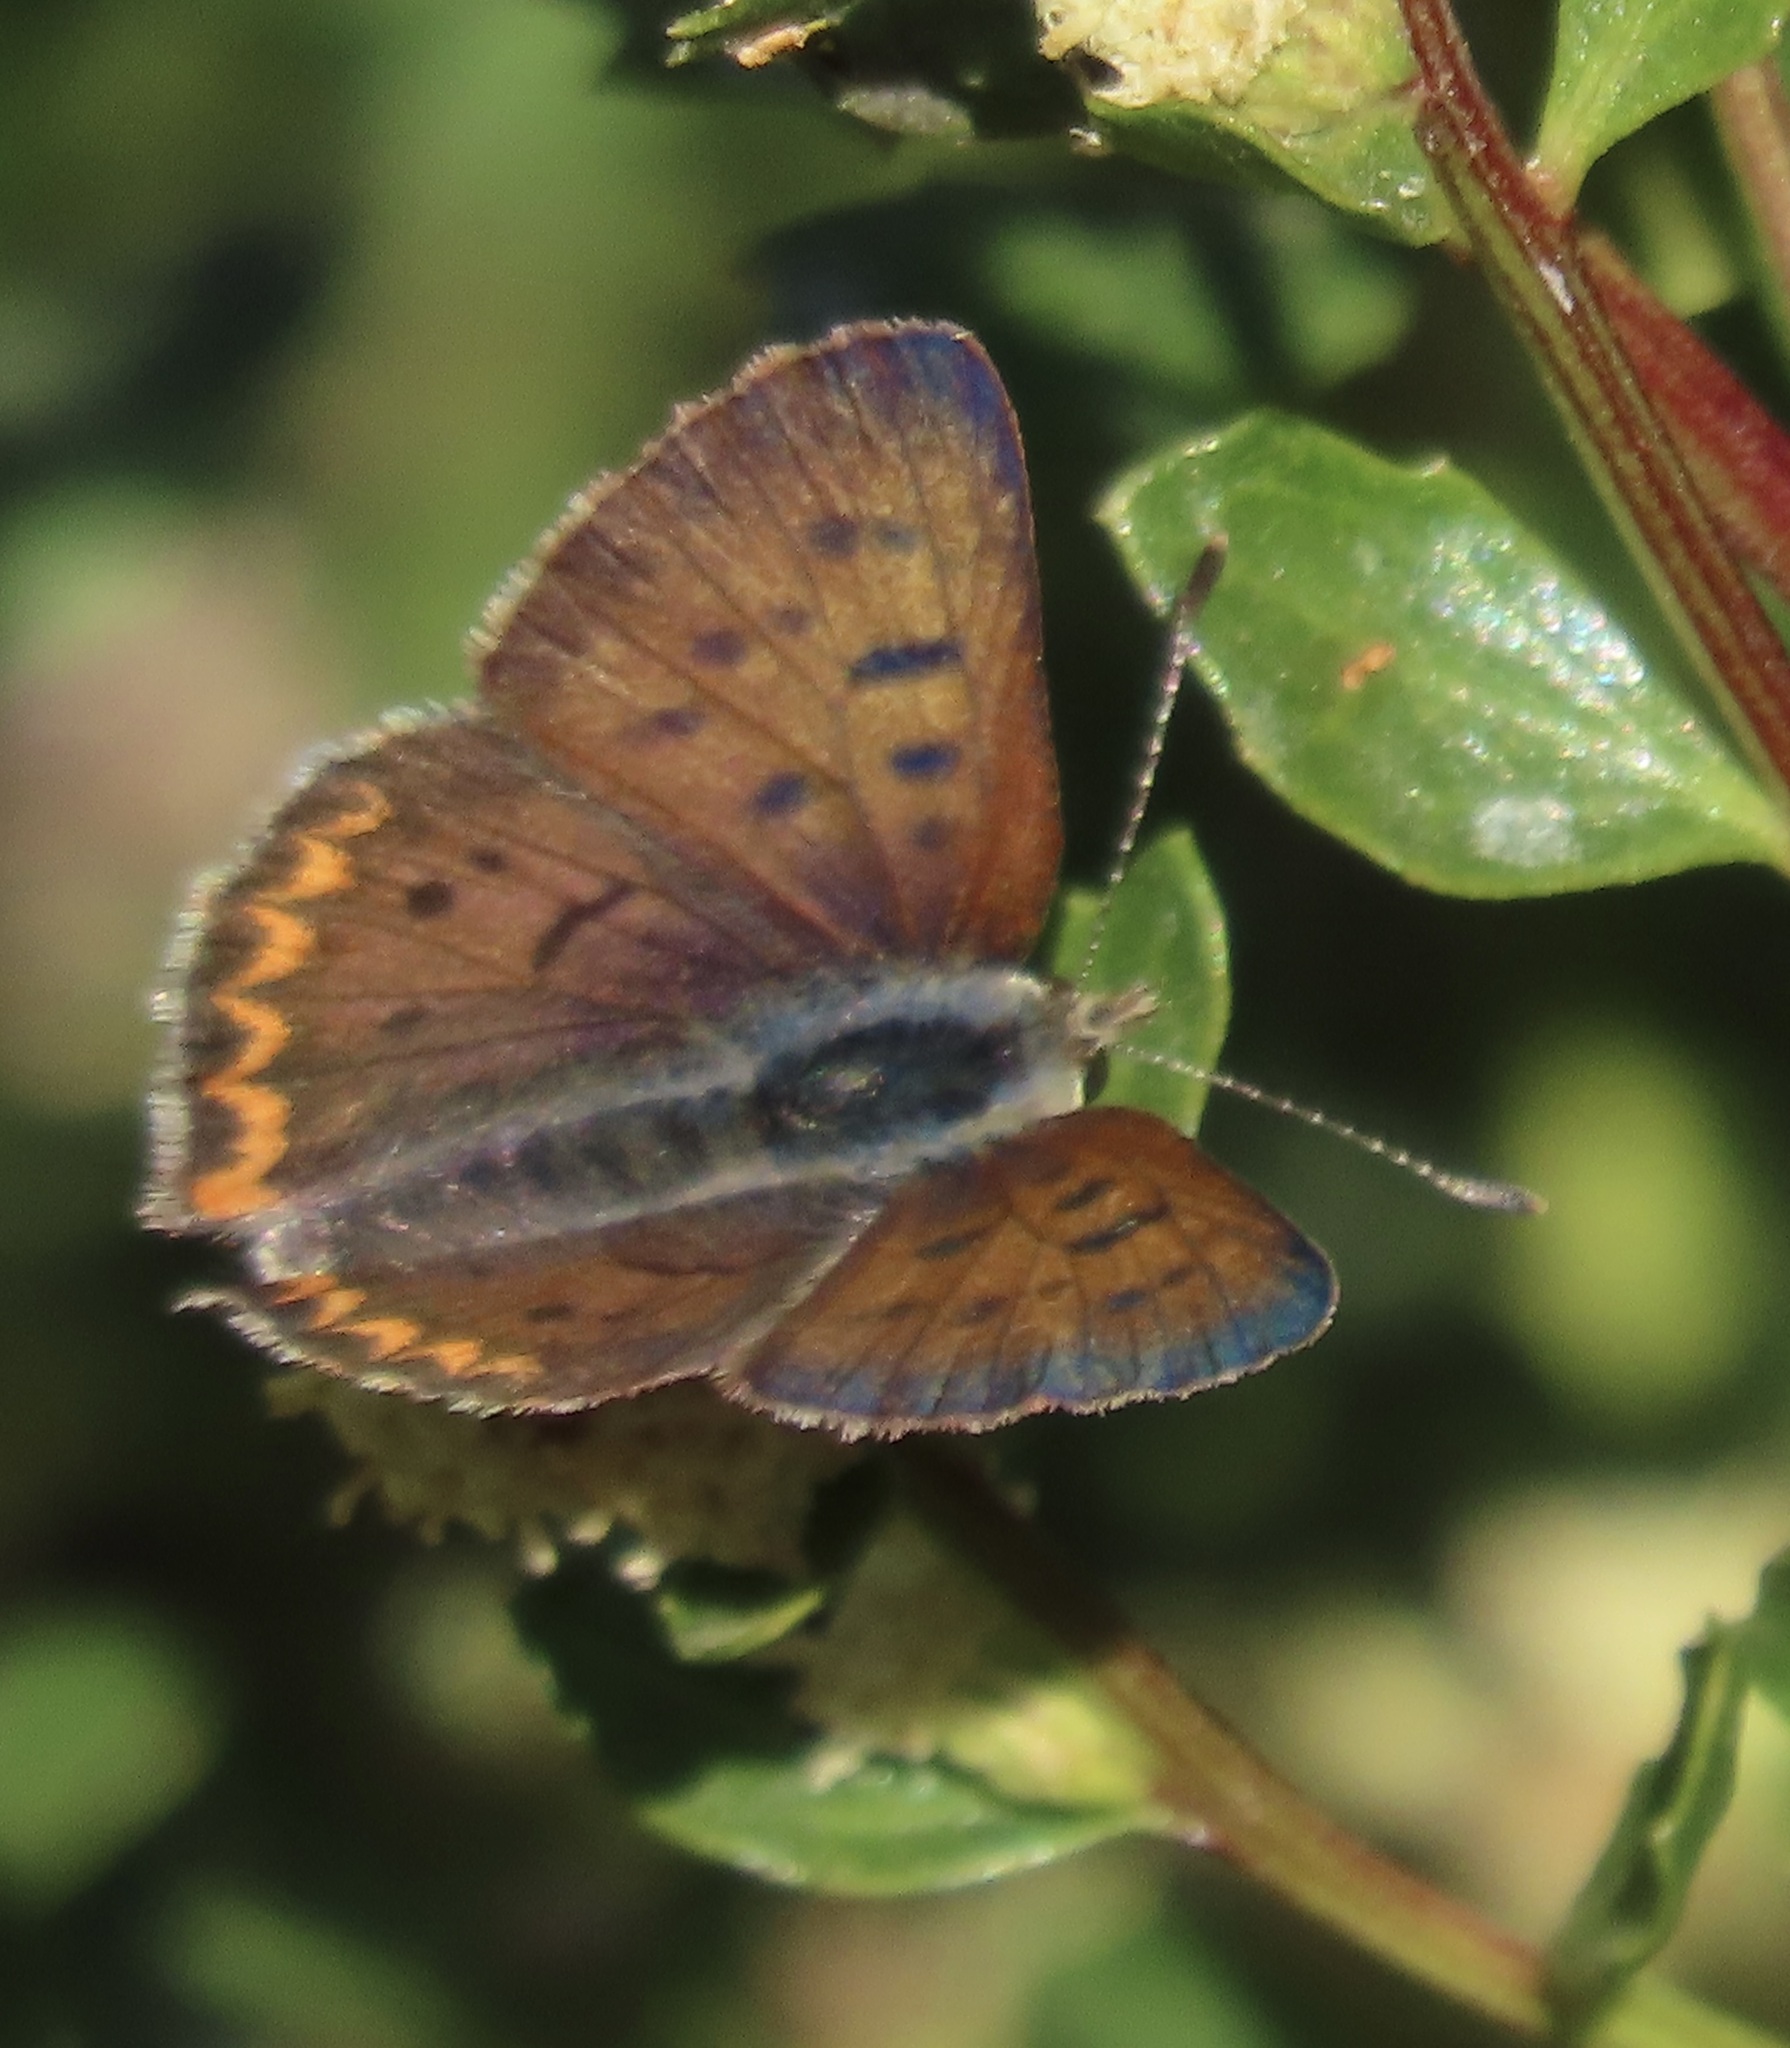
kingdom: Animalia
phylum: Arthropoda
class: Insecta
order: Lepidoptera
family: Lycaenidae
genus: Tharsalea
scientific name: Tharsalea helloides
